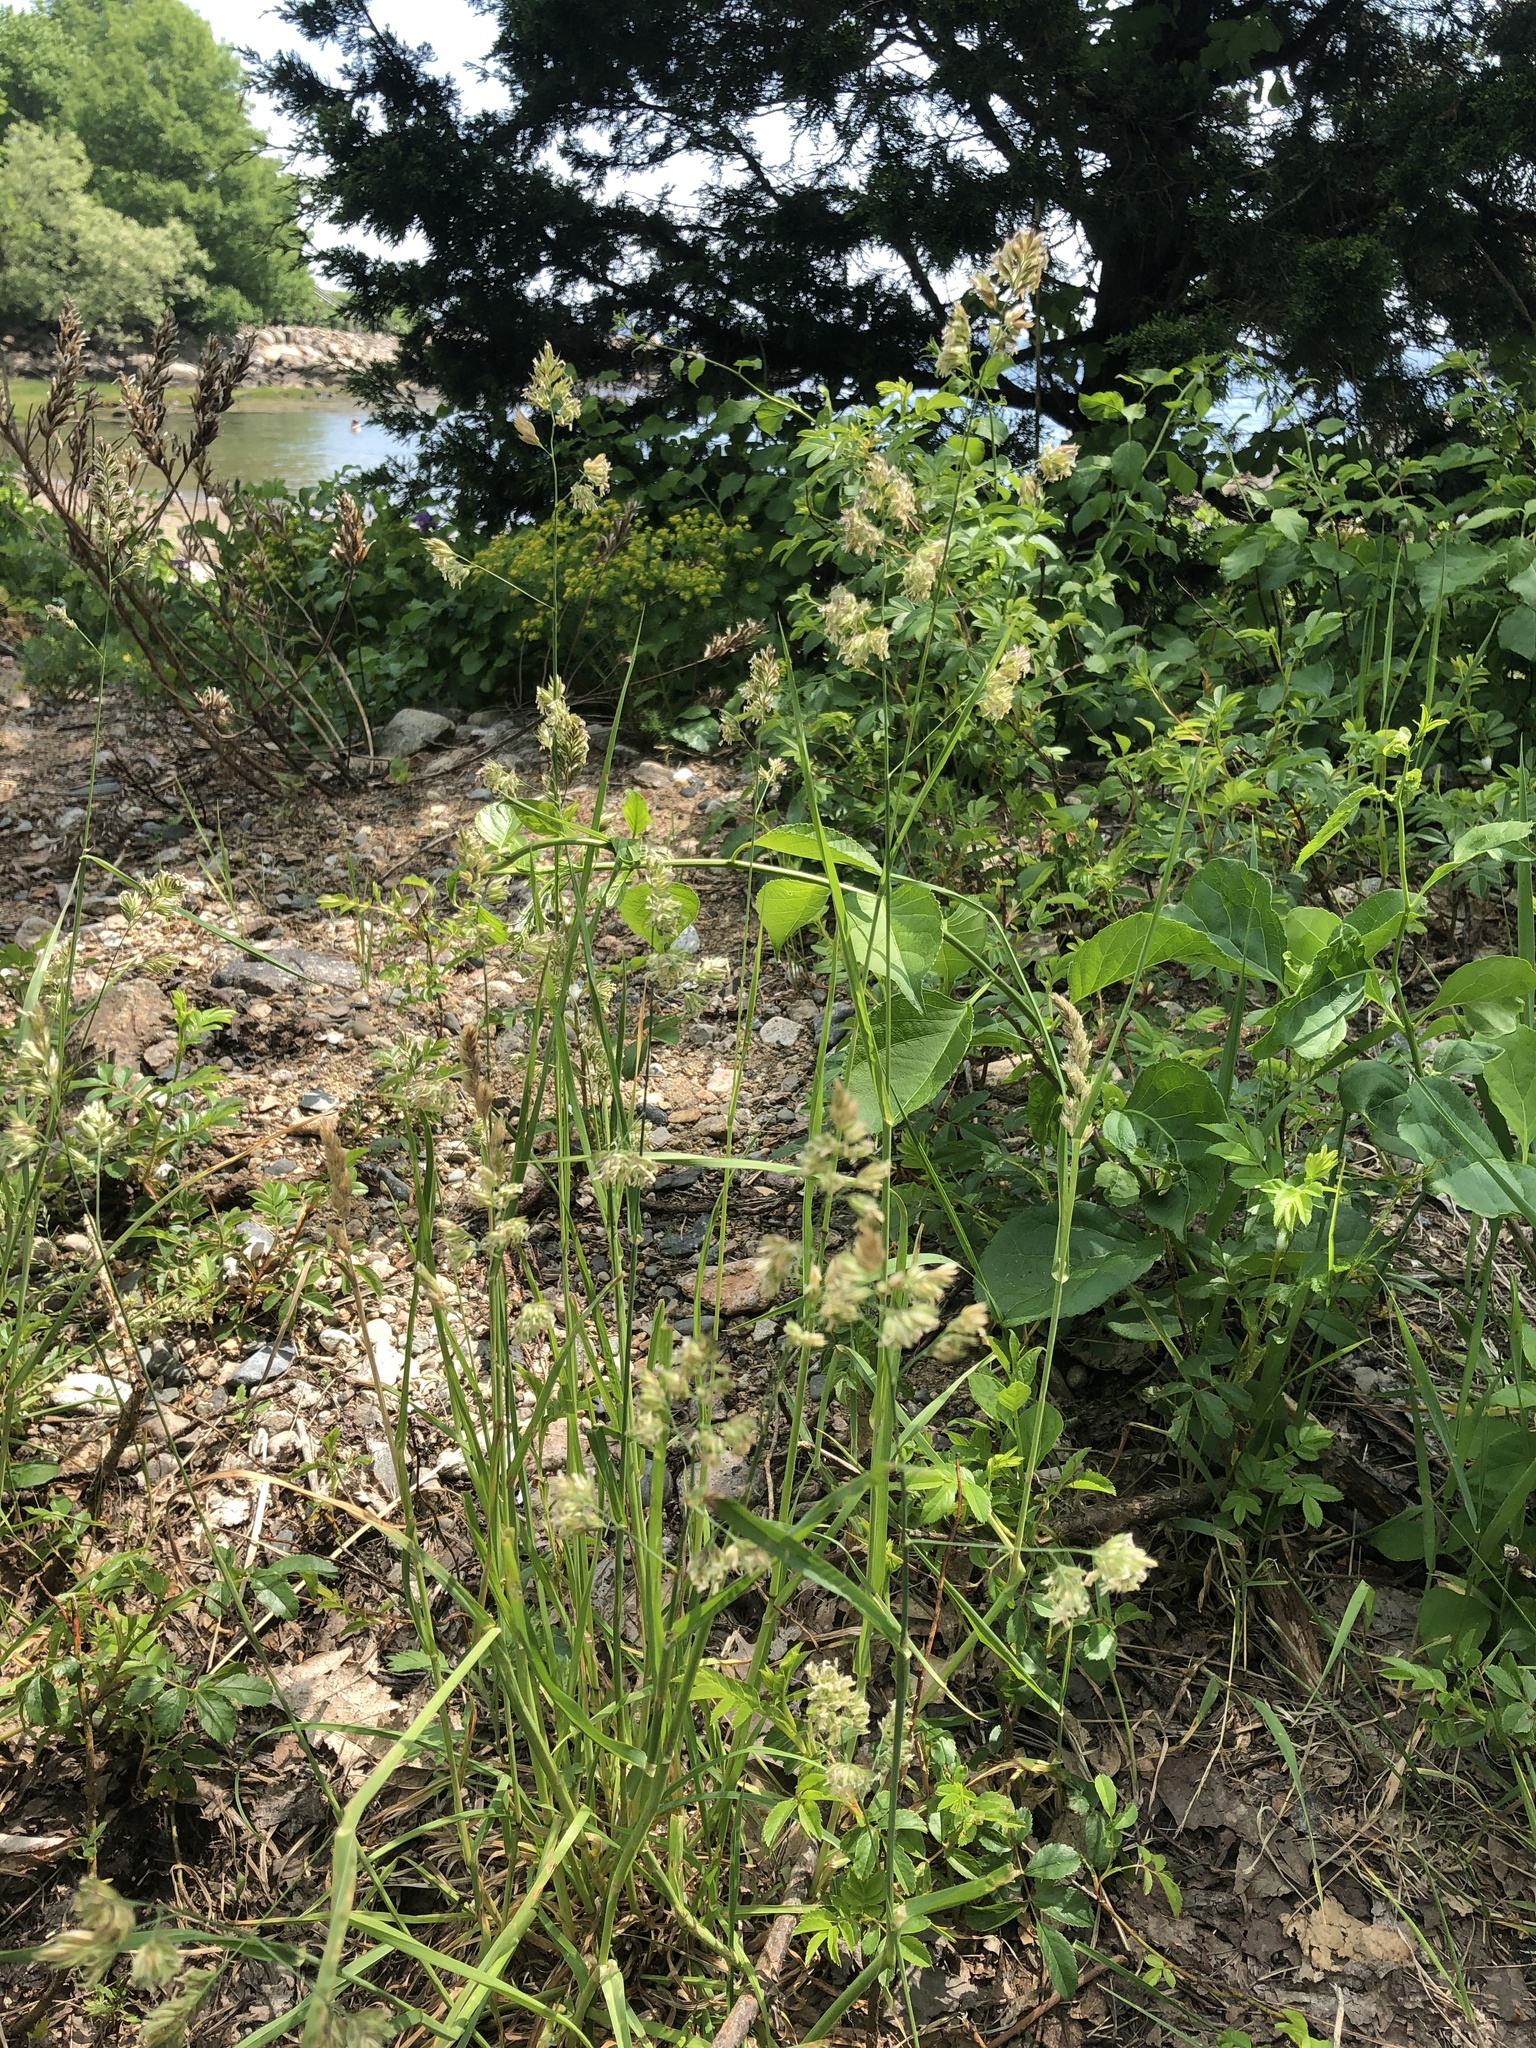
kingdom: Plantae
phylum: Tracheophyta
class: Liliopsida
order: Poales
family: Poaceae
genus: Dactylis
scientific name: Dactylis glomerata
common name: Orchardgrass
